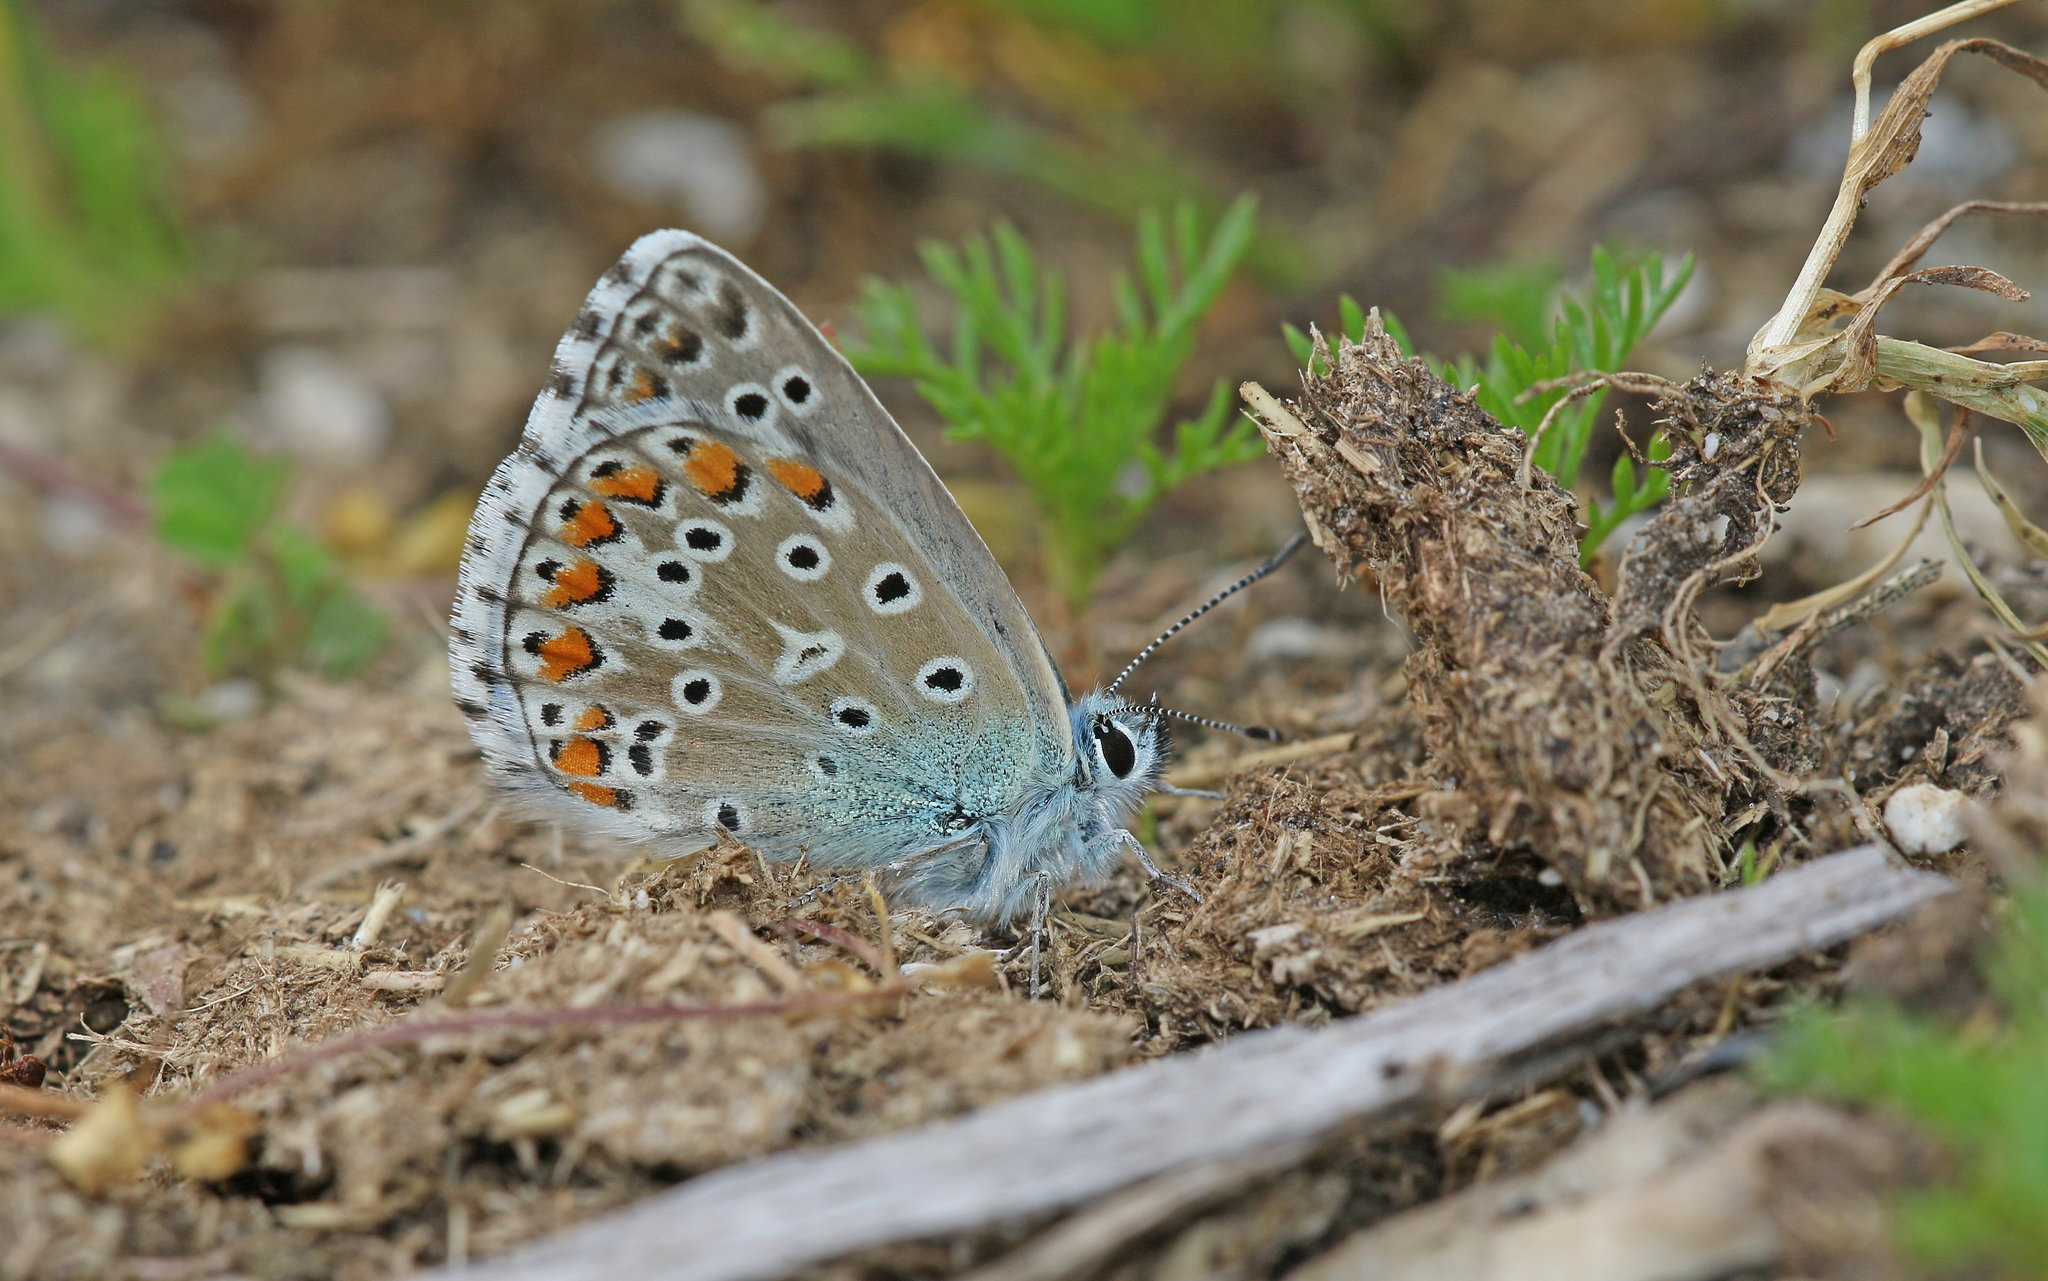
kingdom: Animalia
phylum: Arthropoda
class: Insecta
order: Lepidoptera
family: Lycaenidae
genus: Lysandra
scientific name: Lysandra bellargus
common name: Adonis blue
